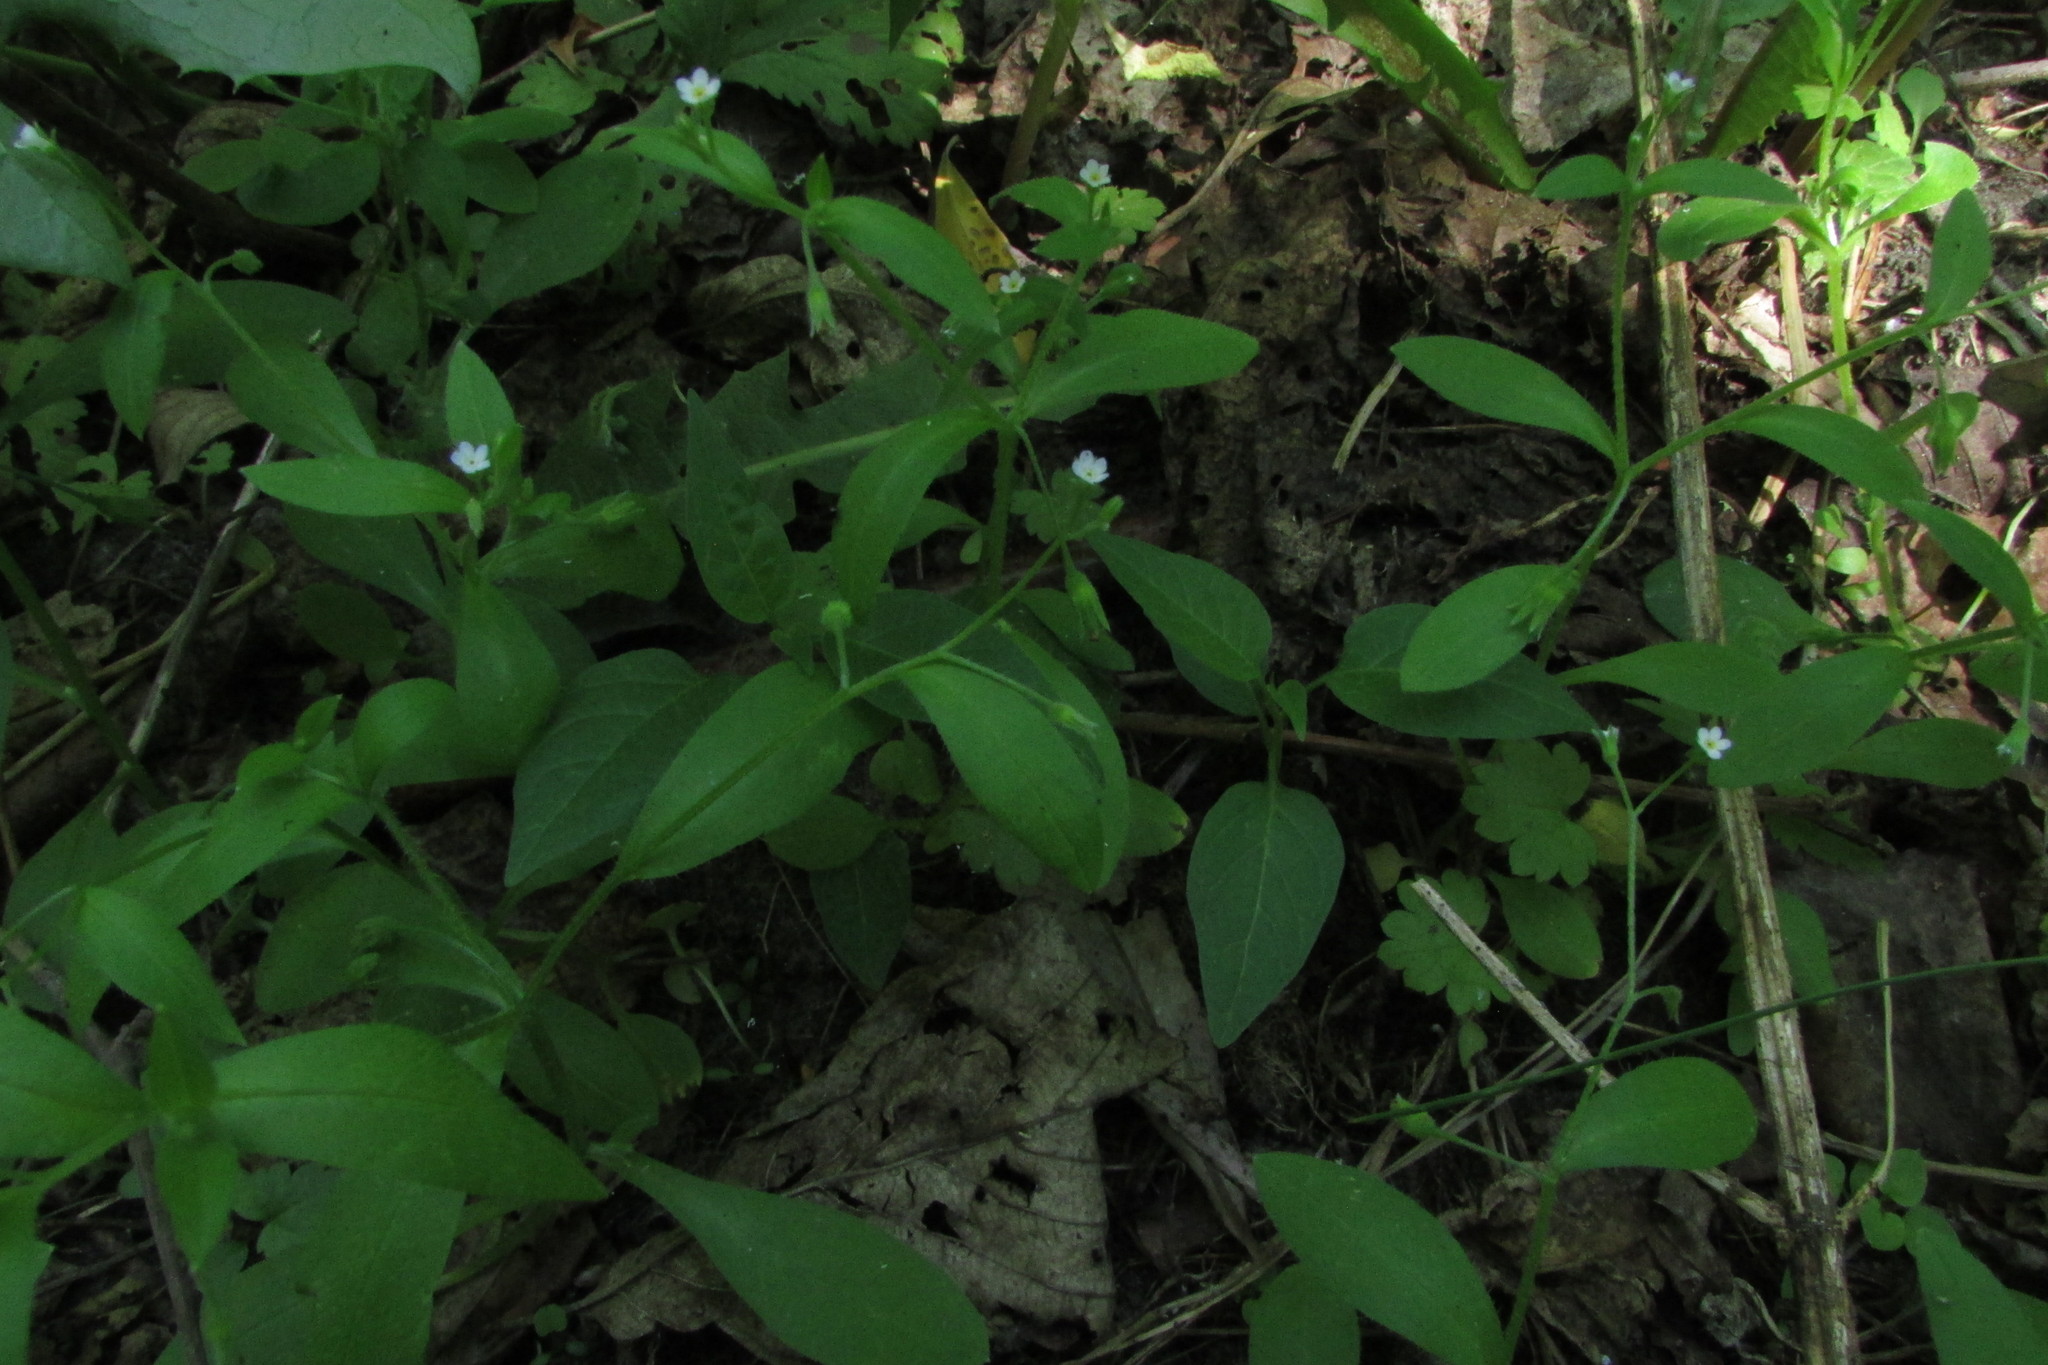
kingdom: Plantae
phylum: Tracheophyta
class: Magnoliopsida
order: Boraginales
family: Boraginaceae
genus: Myosotis
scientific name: Myosotis sparsiflora
